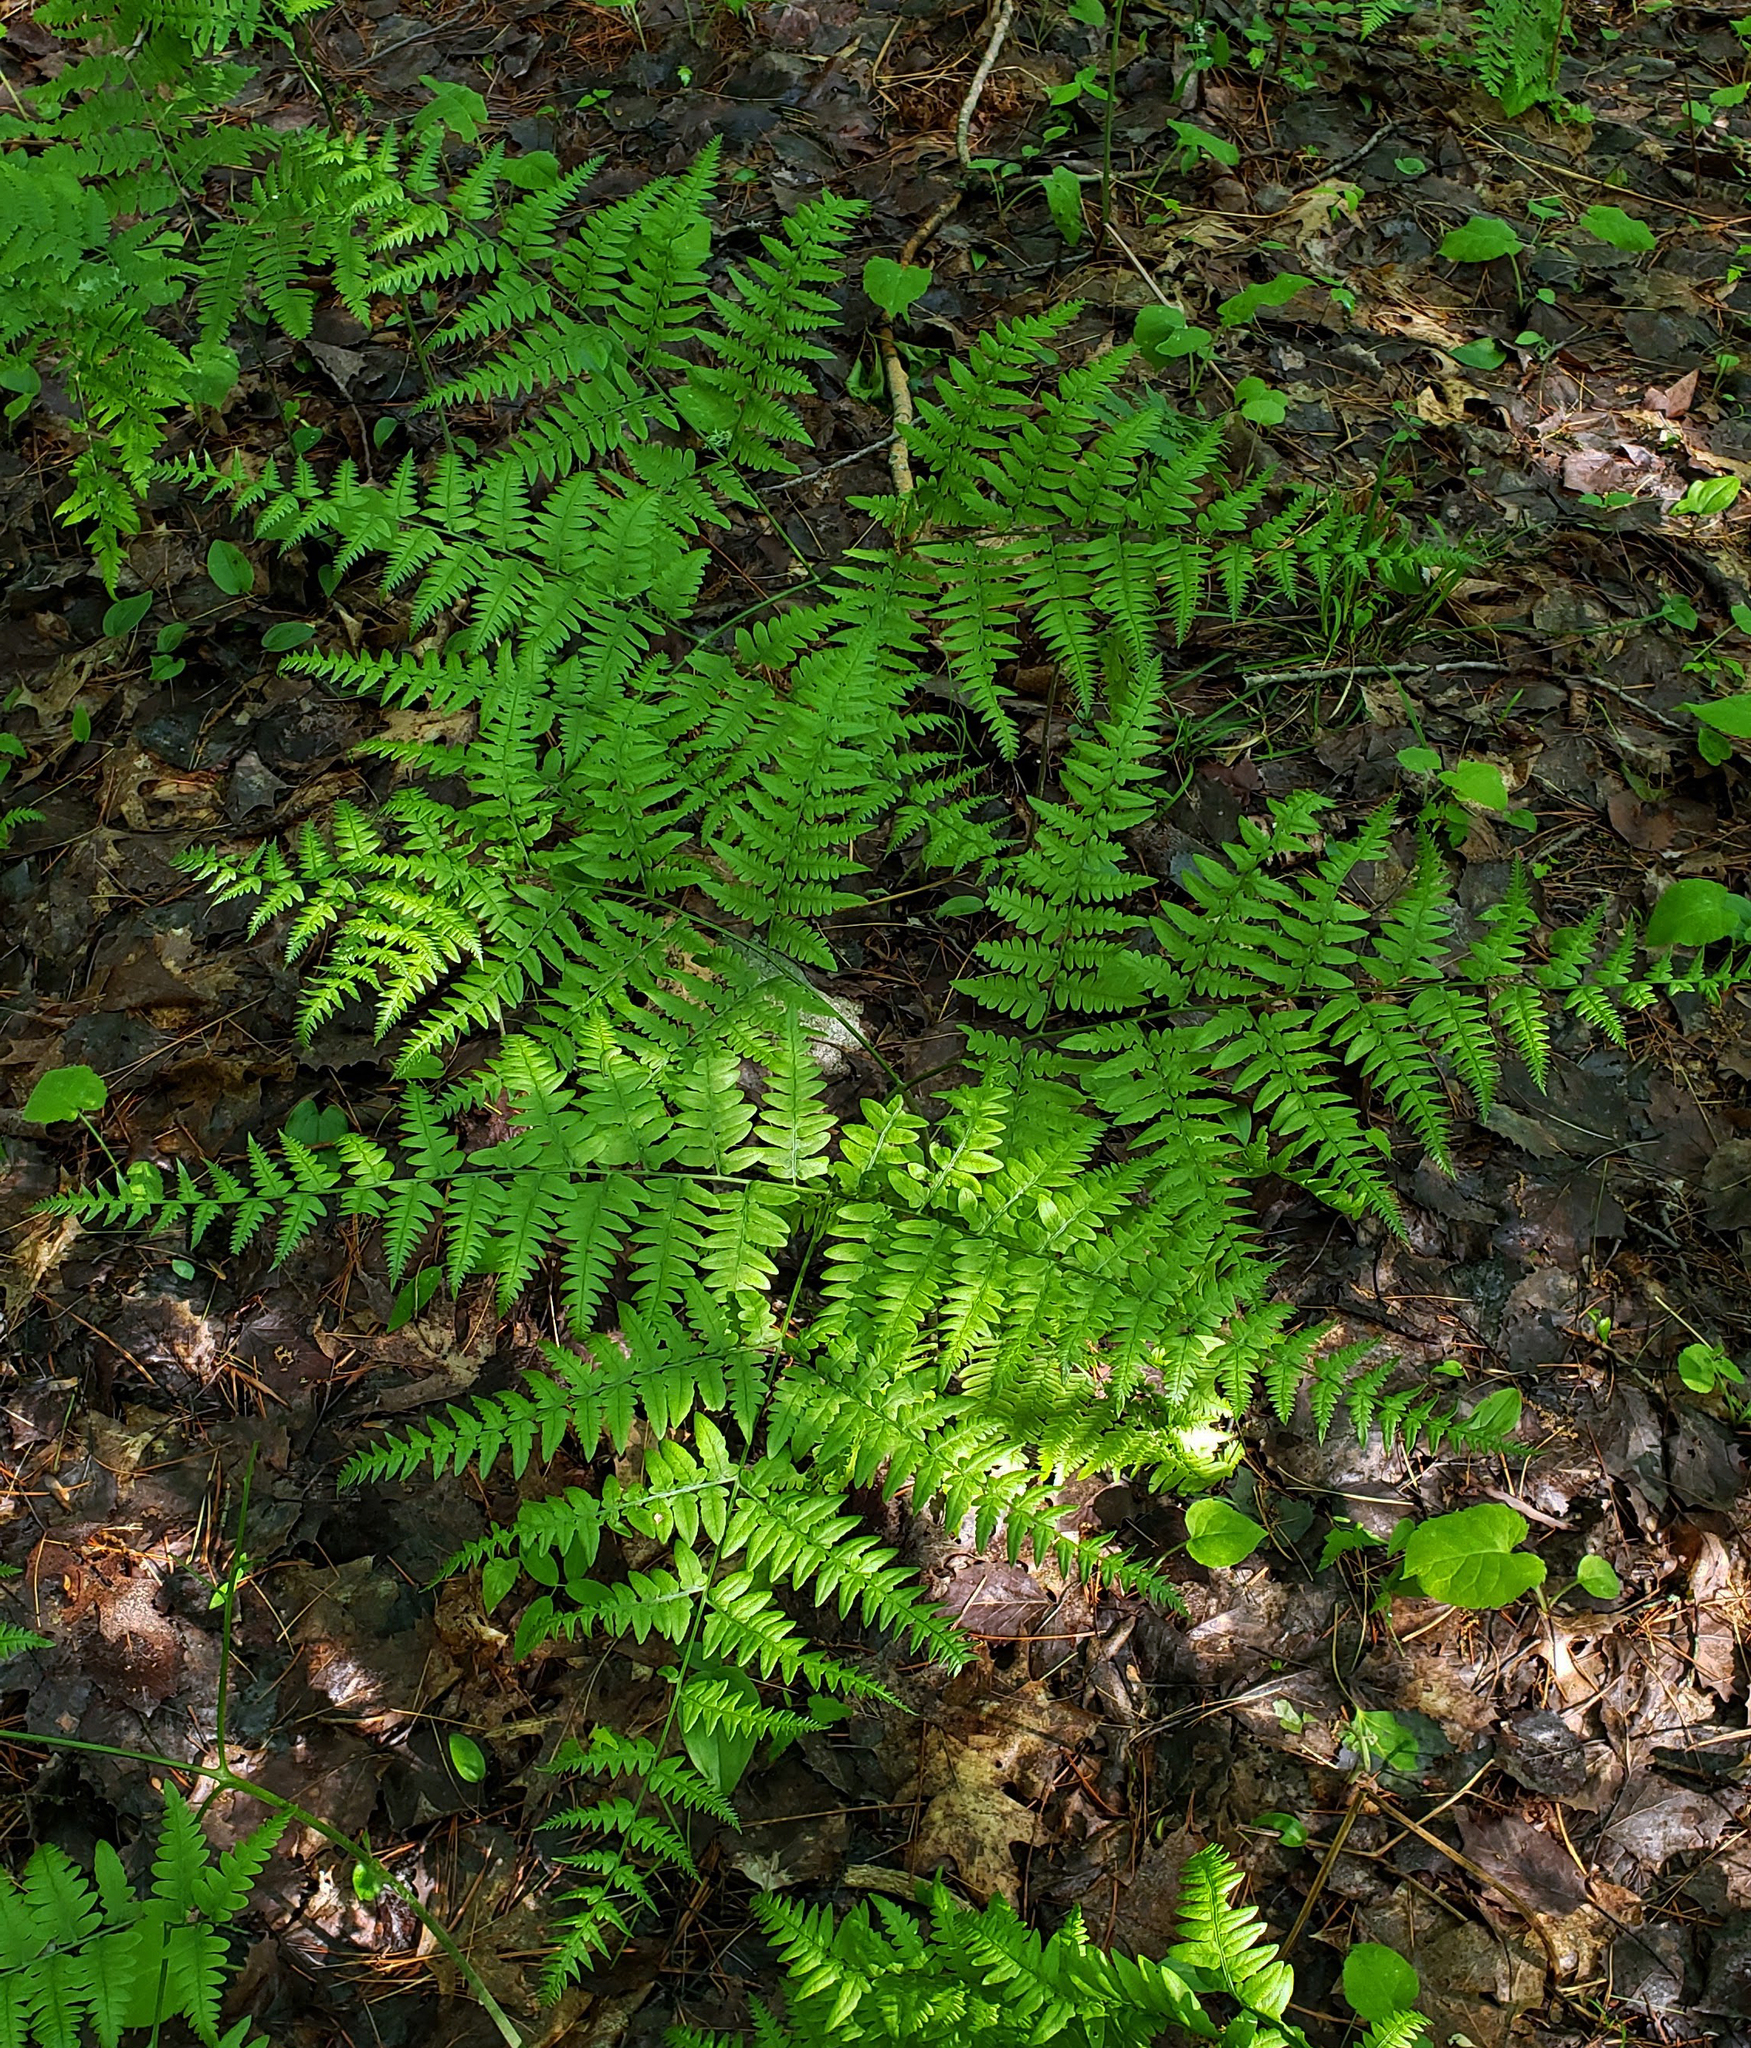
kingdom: Plantae
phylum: Tracheophyta
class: Polypodiopsida
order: Polypodiales
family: Dennstaedtiaceae
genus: Pteridium
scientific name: Pteridium aquilinum
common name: Bracken
